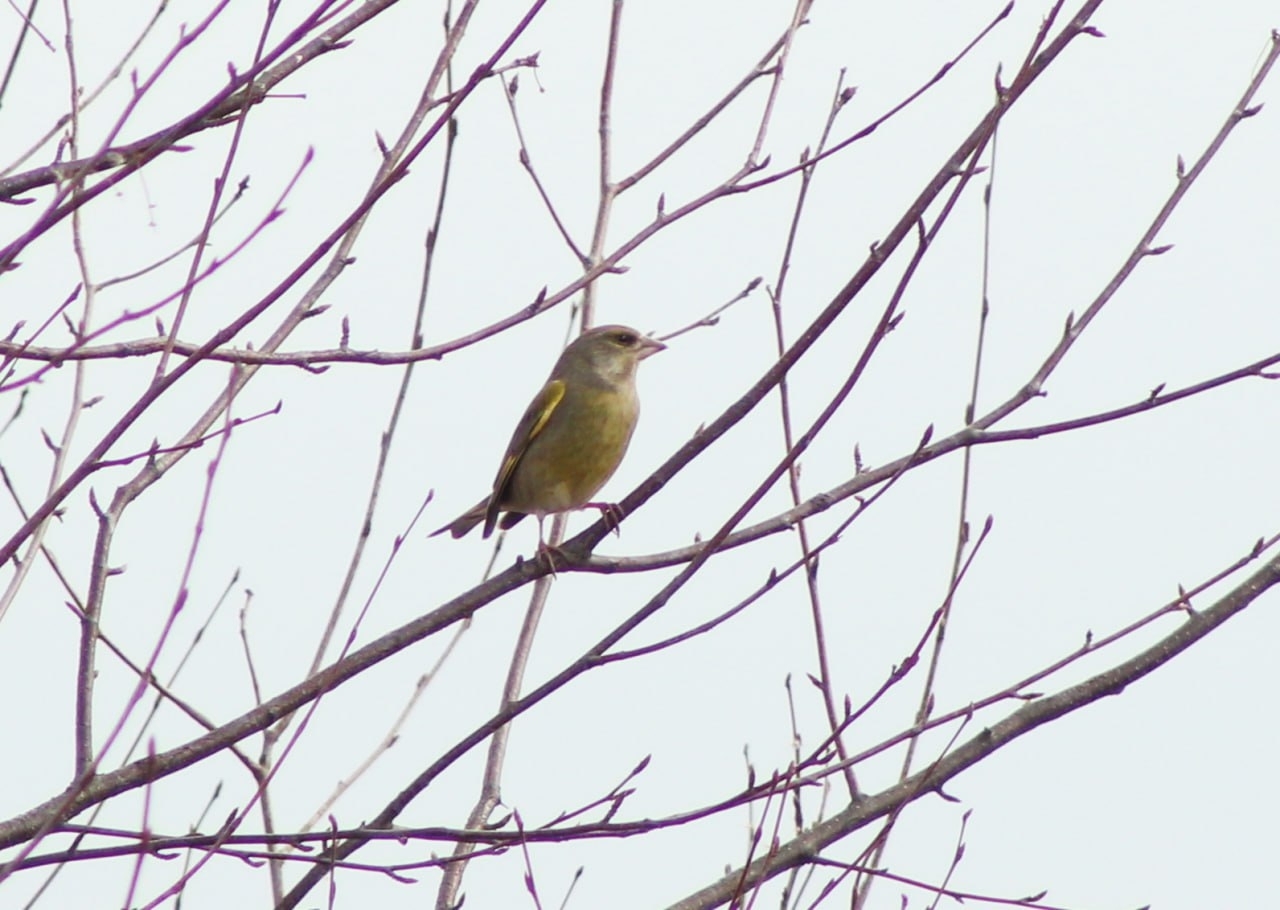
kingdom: Plantae
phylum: Tracheophyta
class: Liliopsida
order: Poales
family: Poaceae
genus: Chloris
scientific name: Chloris chloris
